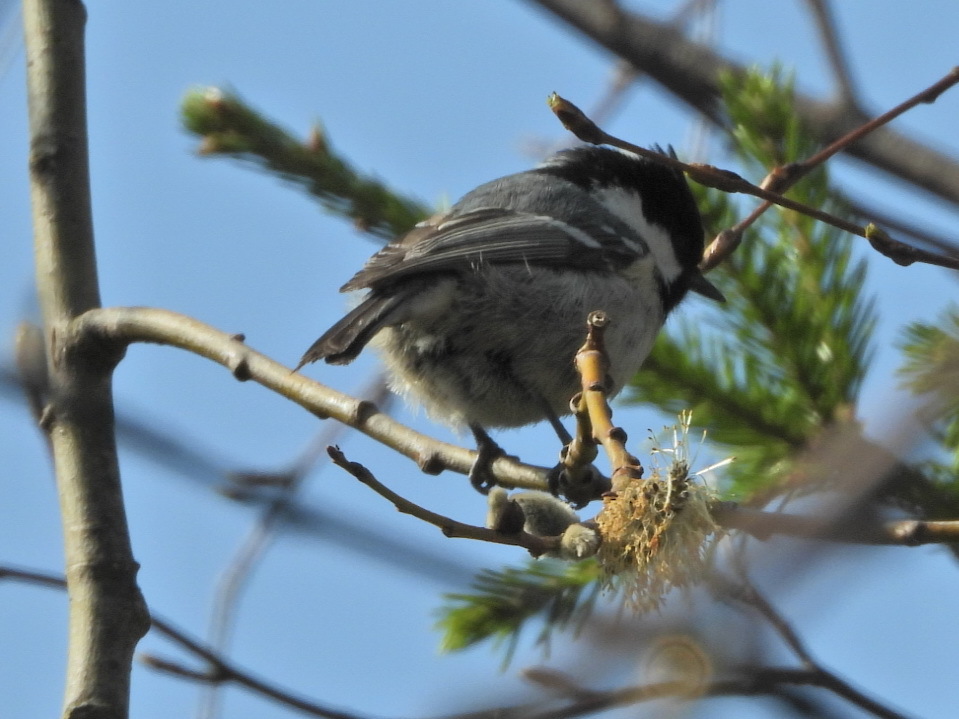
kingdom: Animalia
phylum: Chordata
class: Aves
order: Passeriformes
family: Paridae
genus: Periparus
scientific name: Periparus ater
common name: Coal tit
